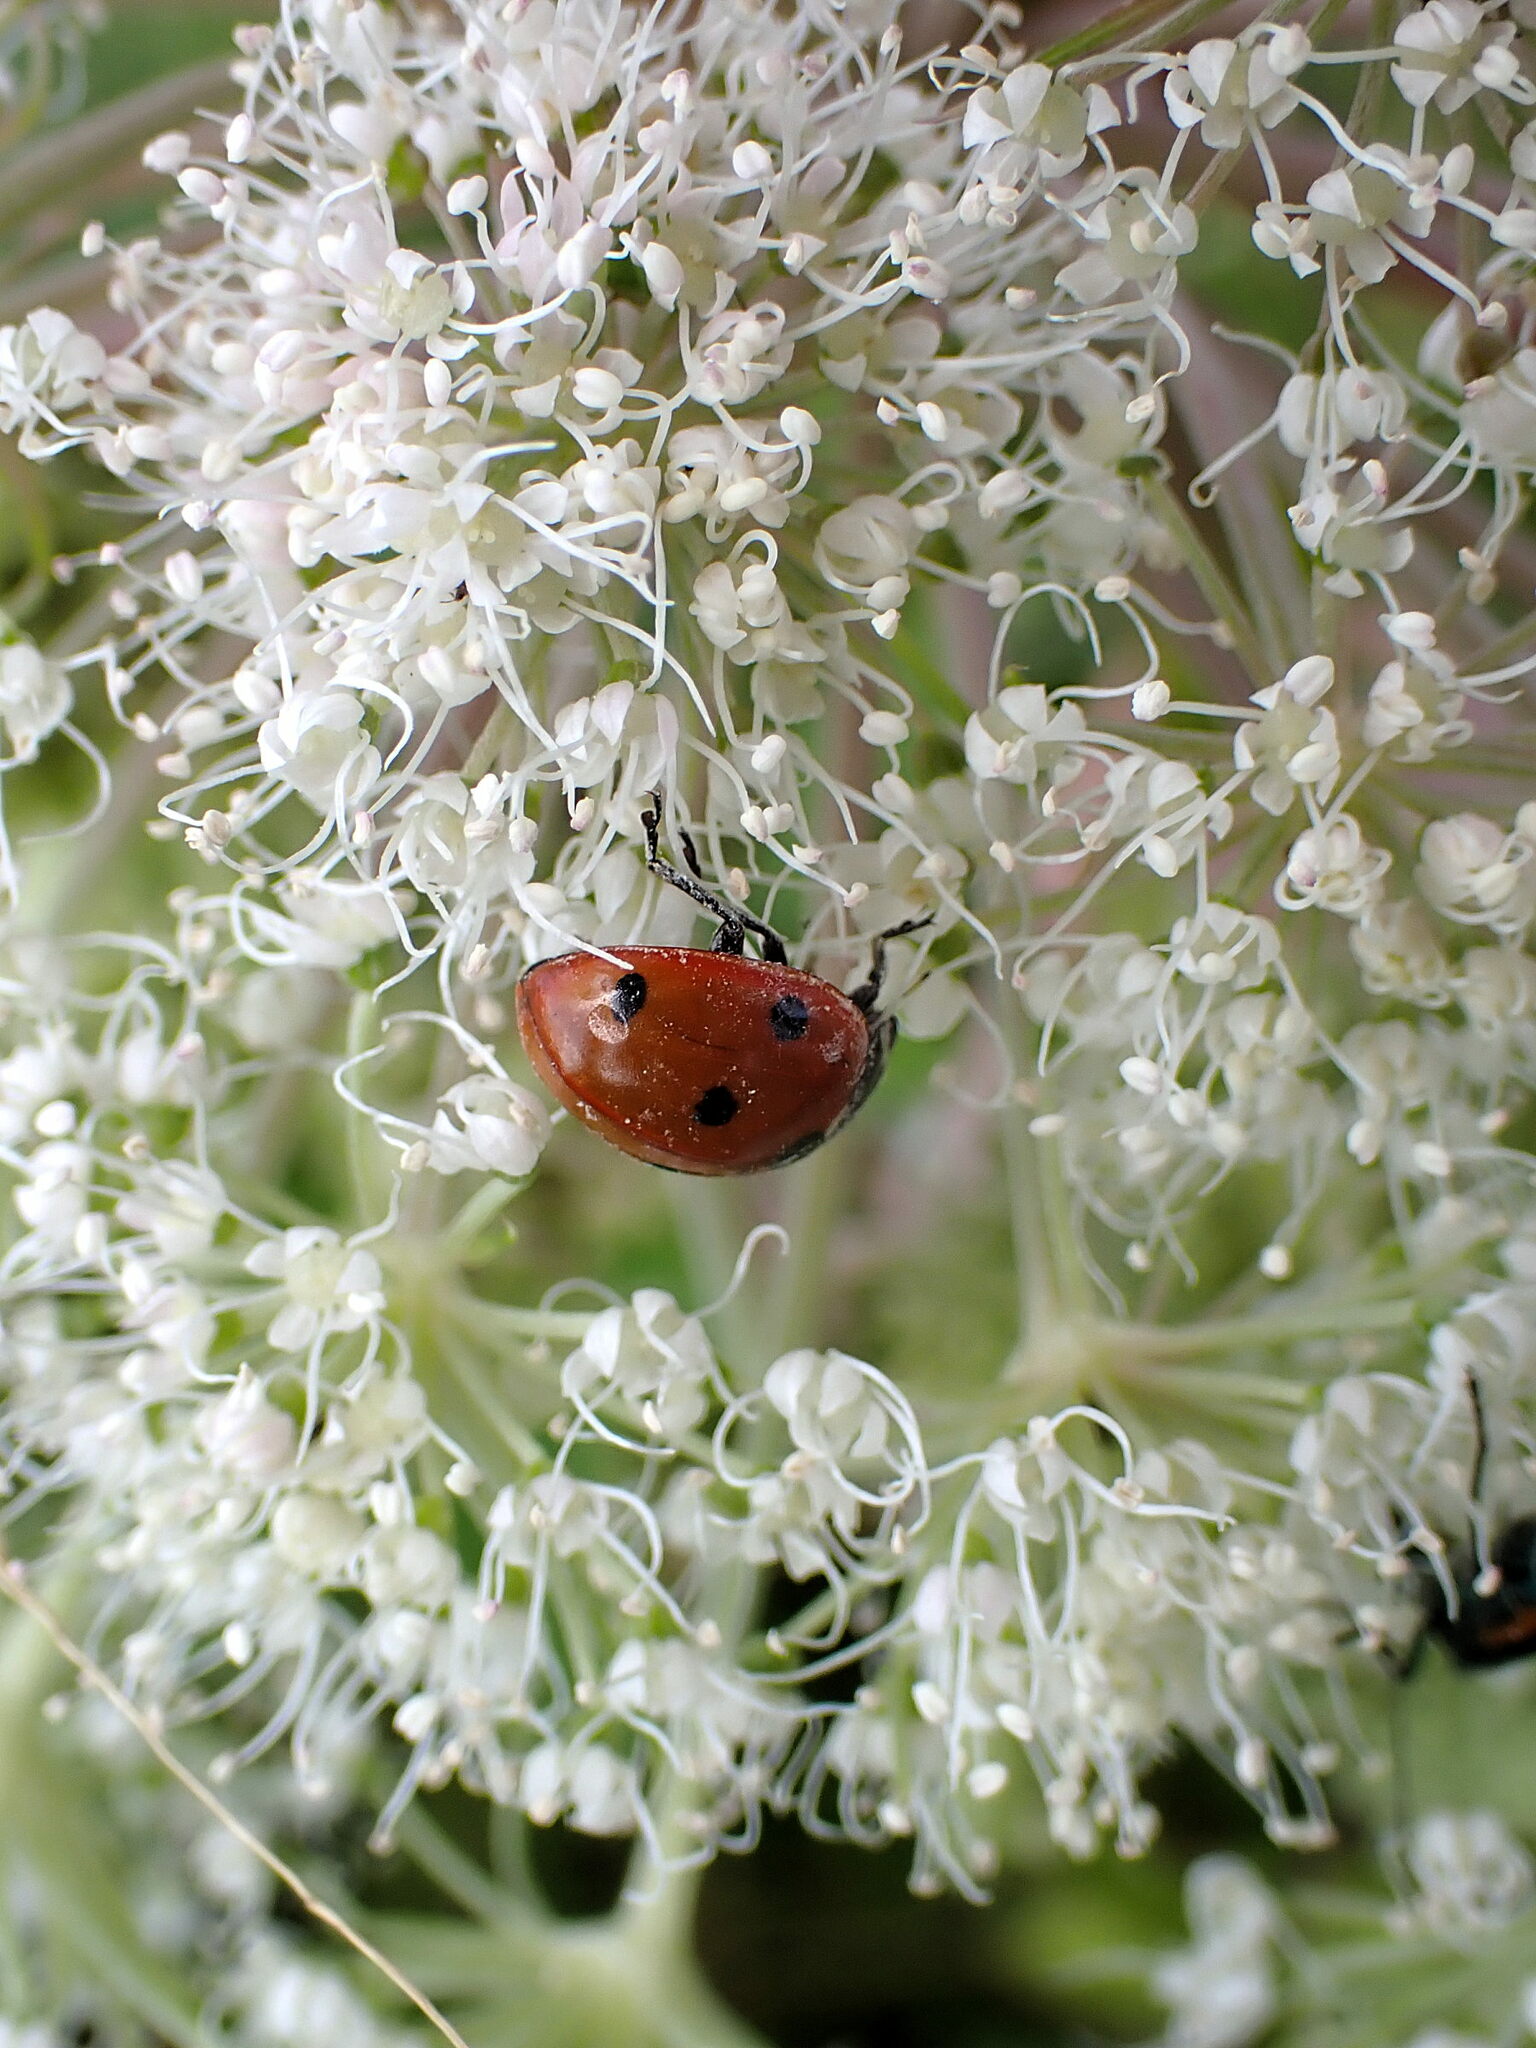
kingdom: Animalia
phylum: Arthropoda
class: Insecta
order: Coleoptera
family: Coccinellidae
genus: Coccinella
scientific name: Coccinella septempunctata
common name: Sevenspotted lady beetle
